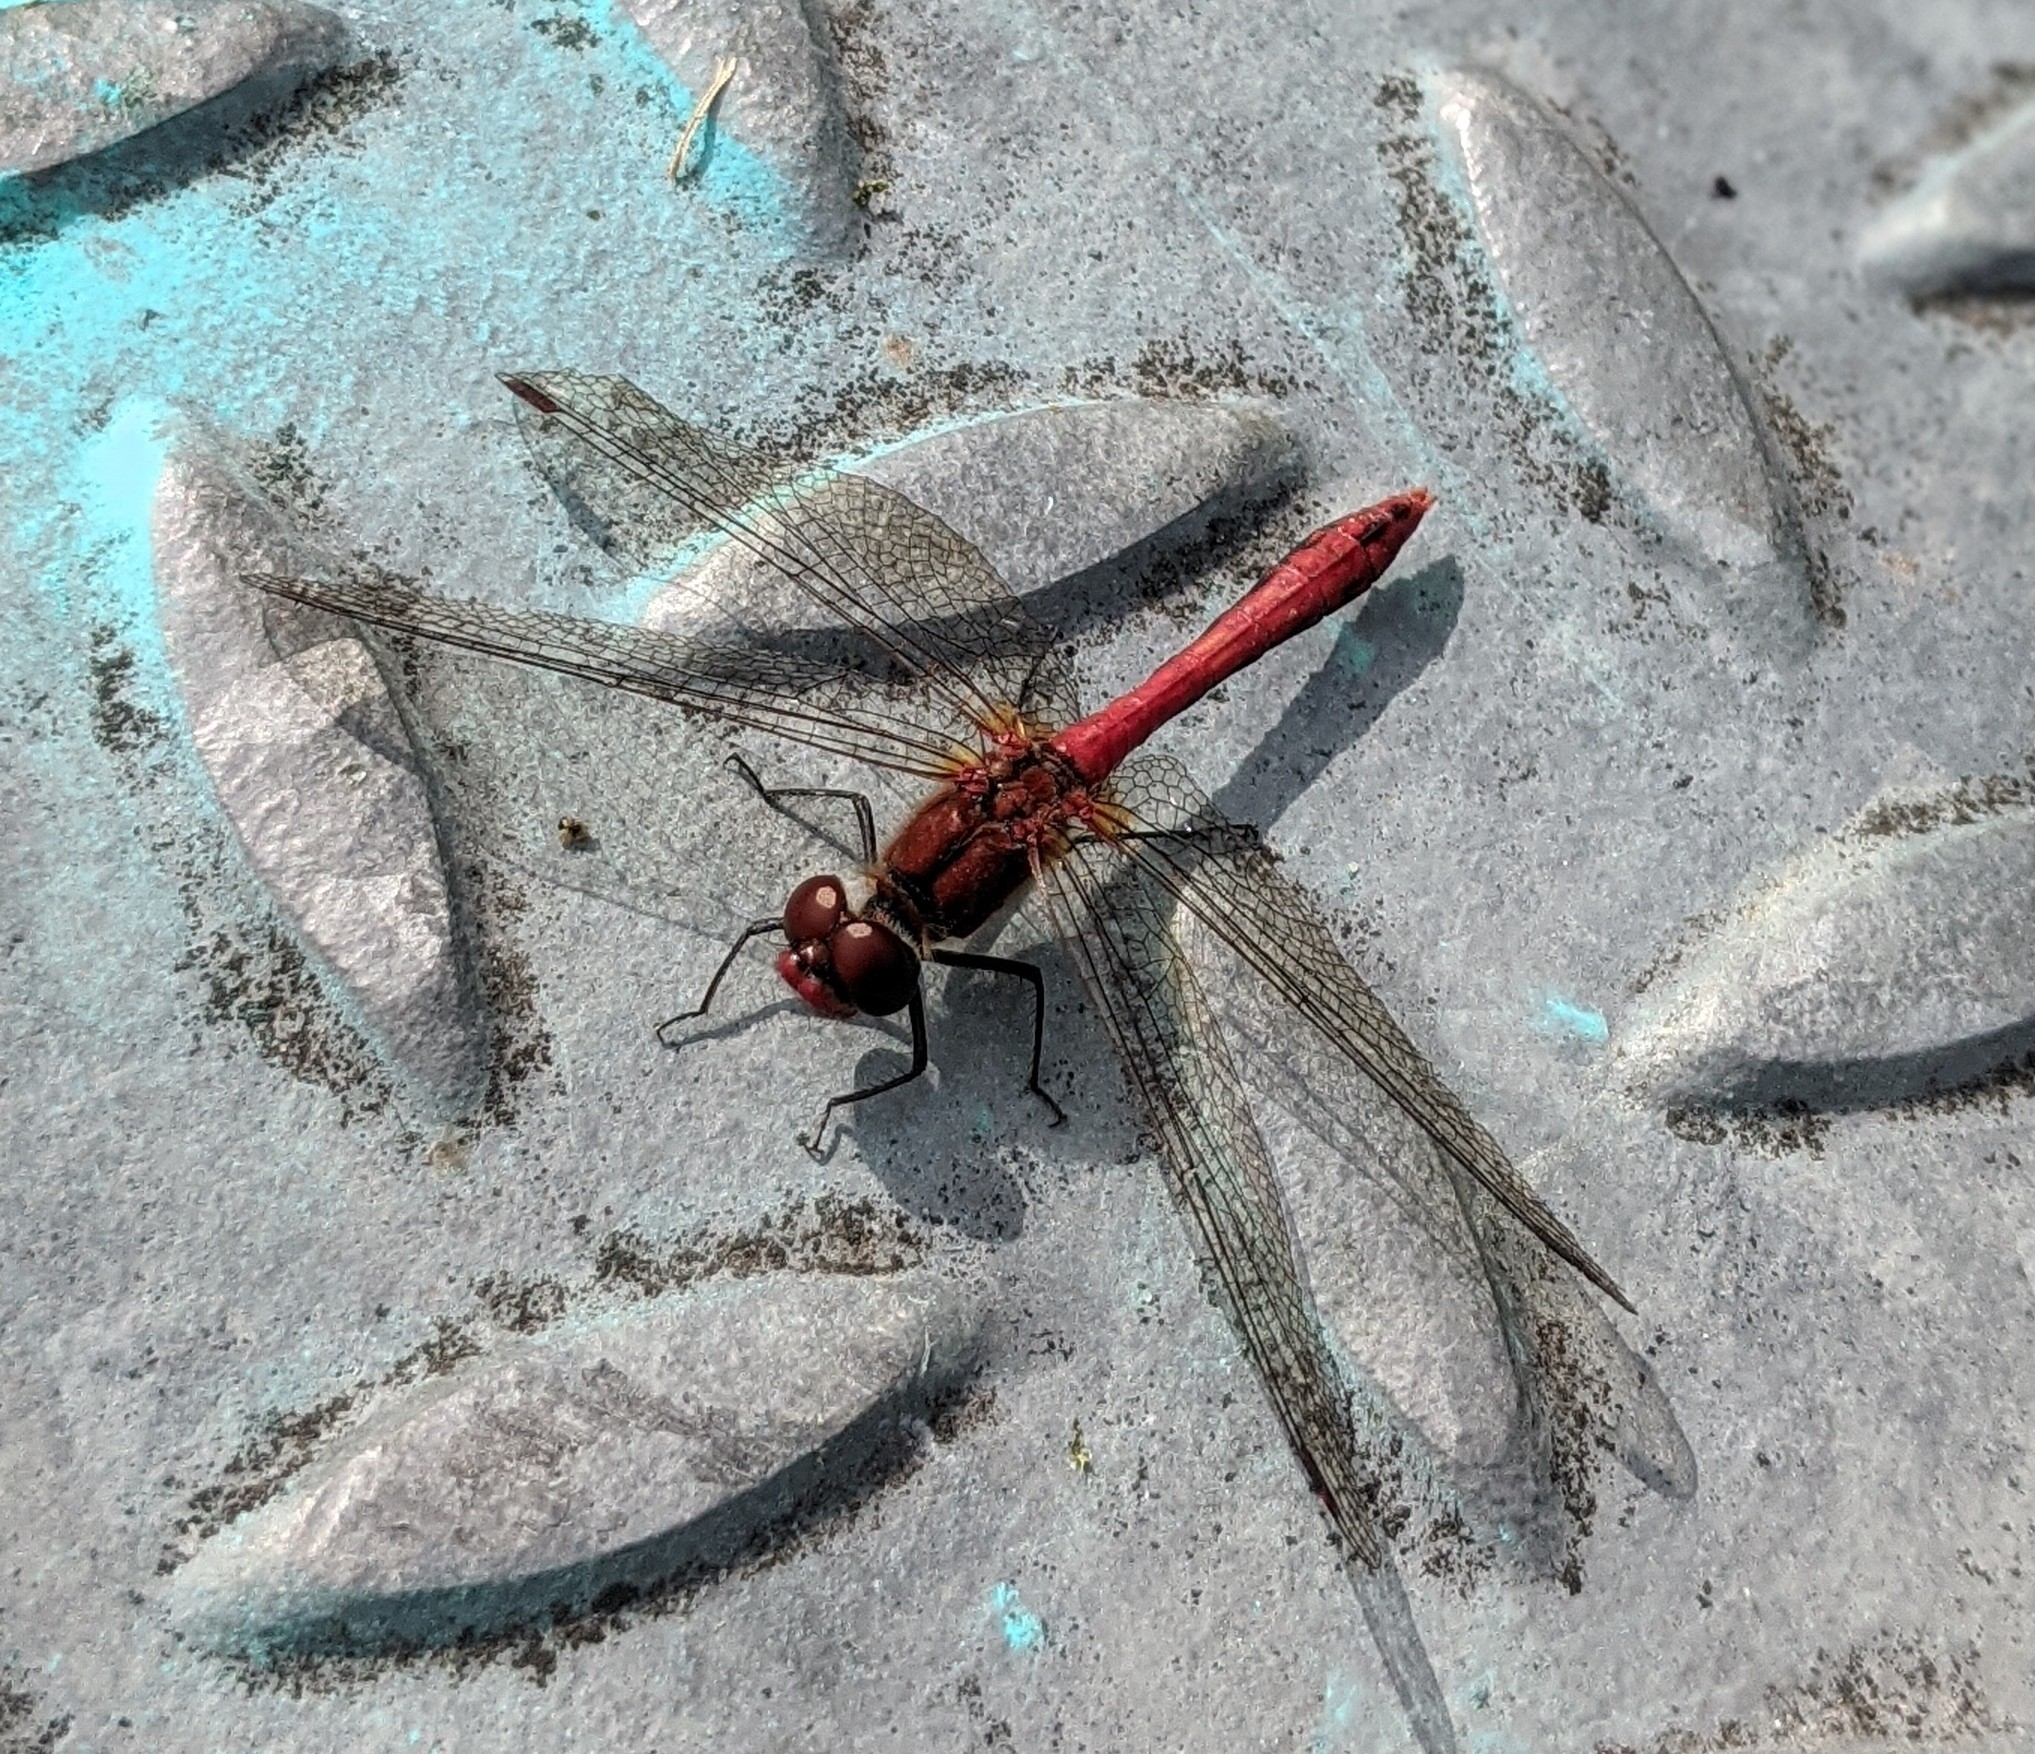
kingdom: Animalia
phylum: Arthropoda
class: Insecta
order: Odonata
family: Libellulidae
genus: Sympetrum
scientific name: Sympetrum sanguineum
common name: Ruddy darter
